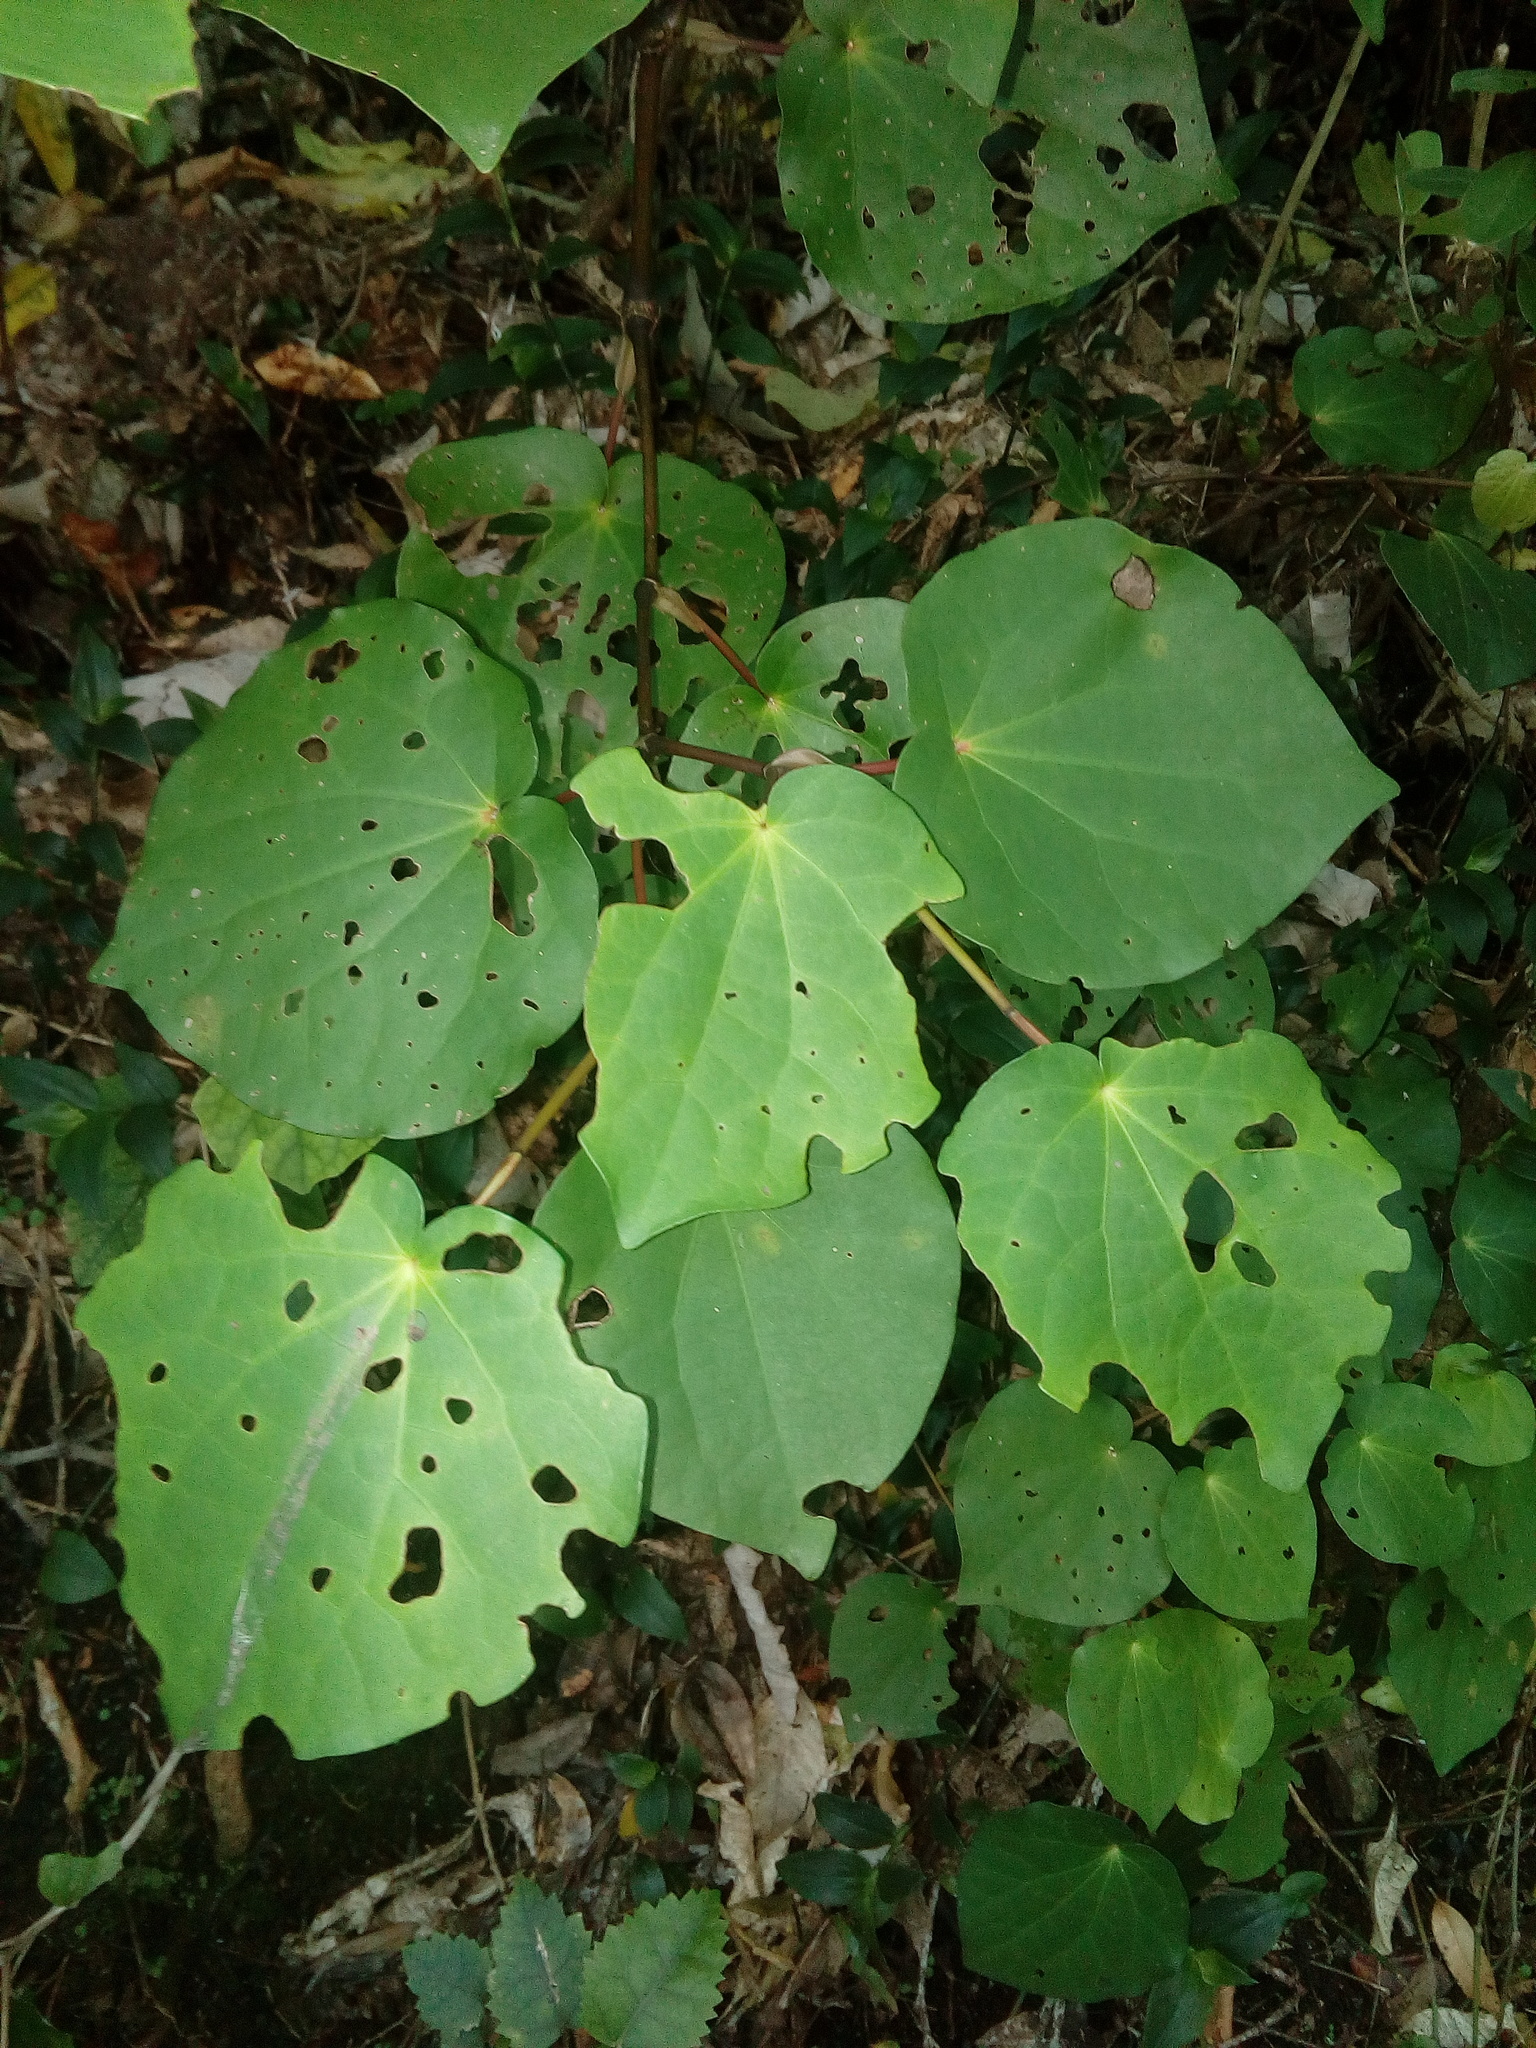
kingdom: Plantae
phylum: Tracheophyta
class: Magnoliopsida
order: Piperales
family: Piperaceae
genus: Macropiper
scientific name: Macropiper excelsum
